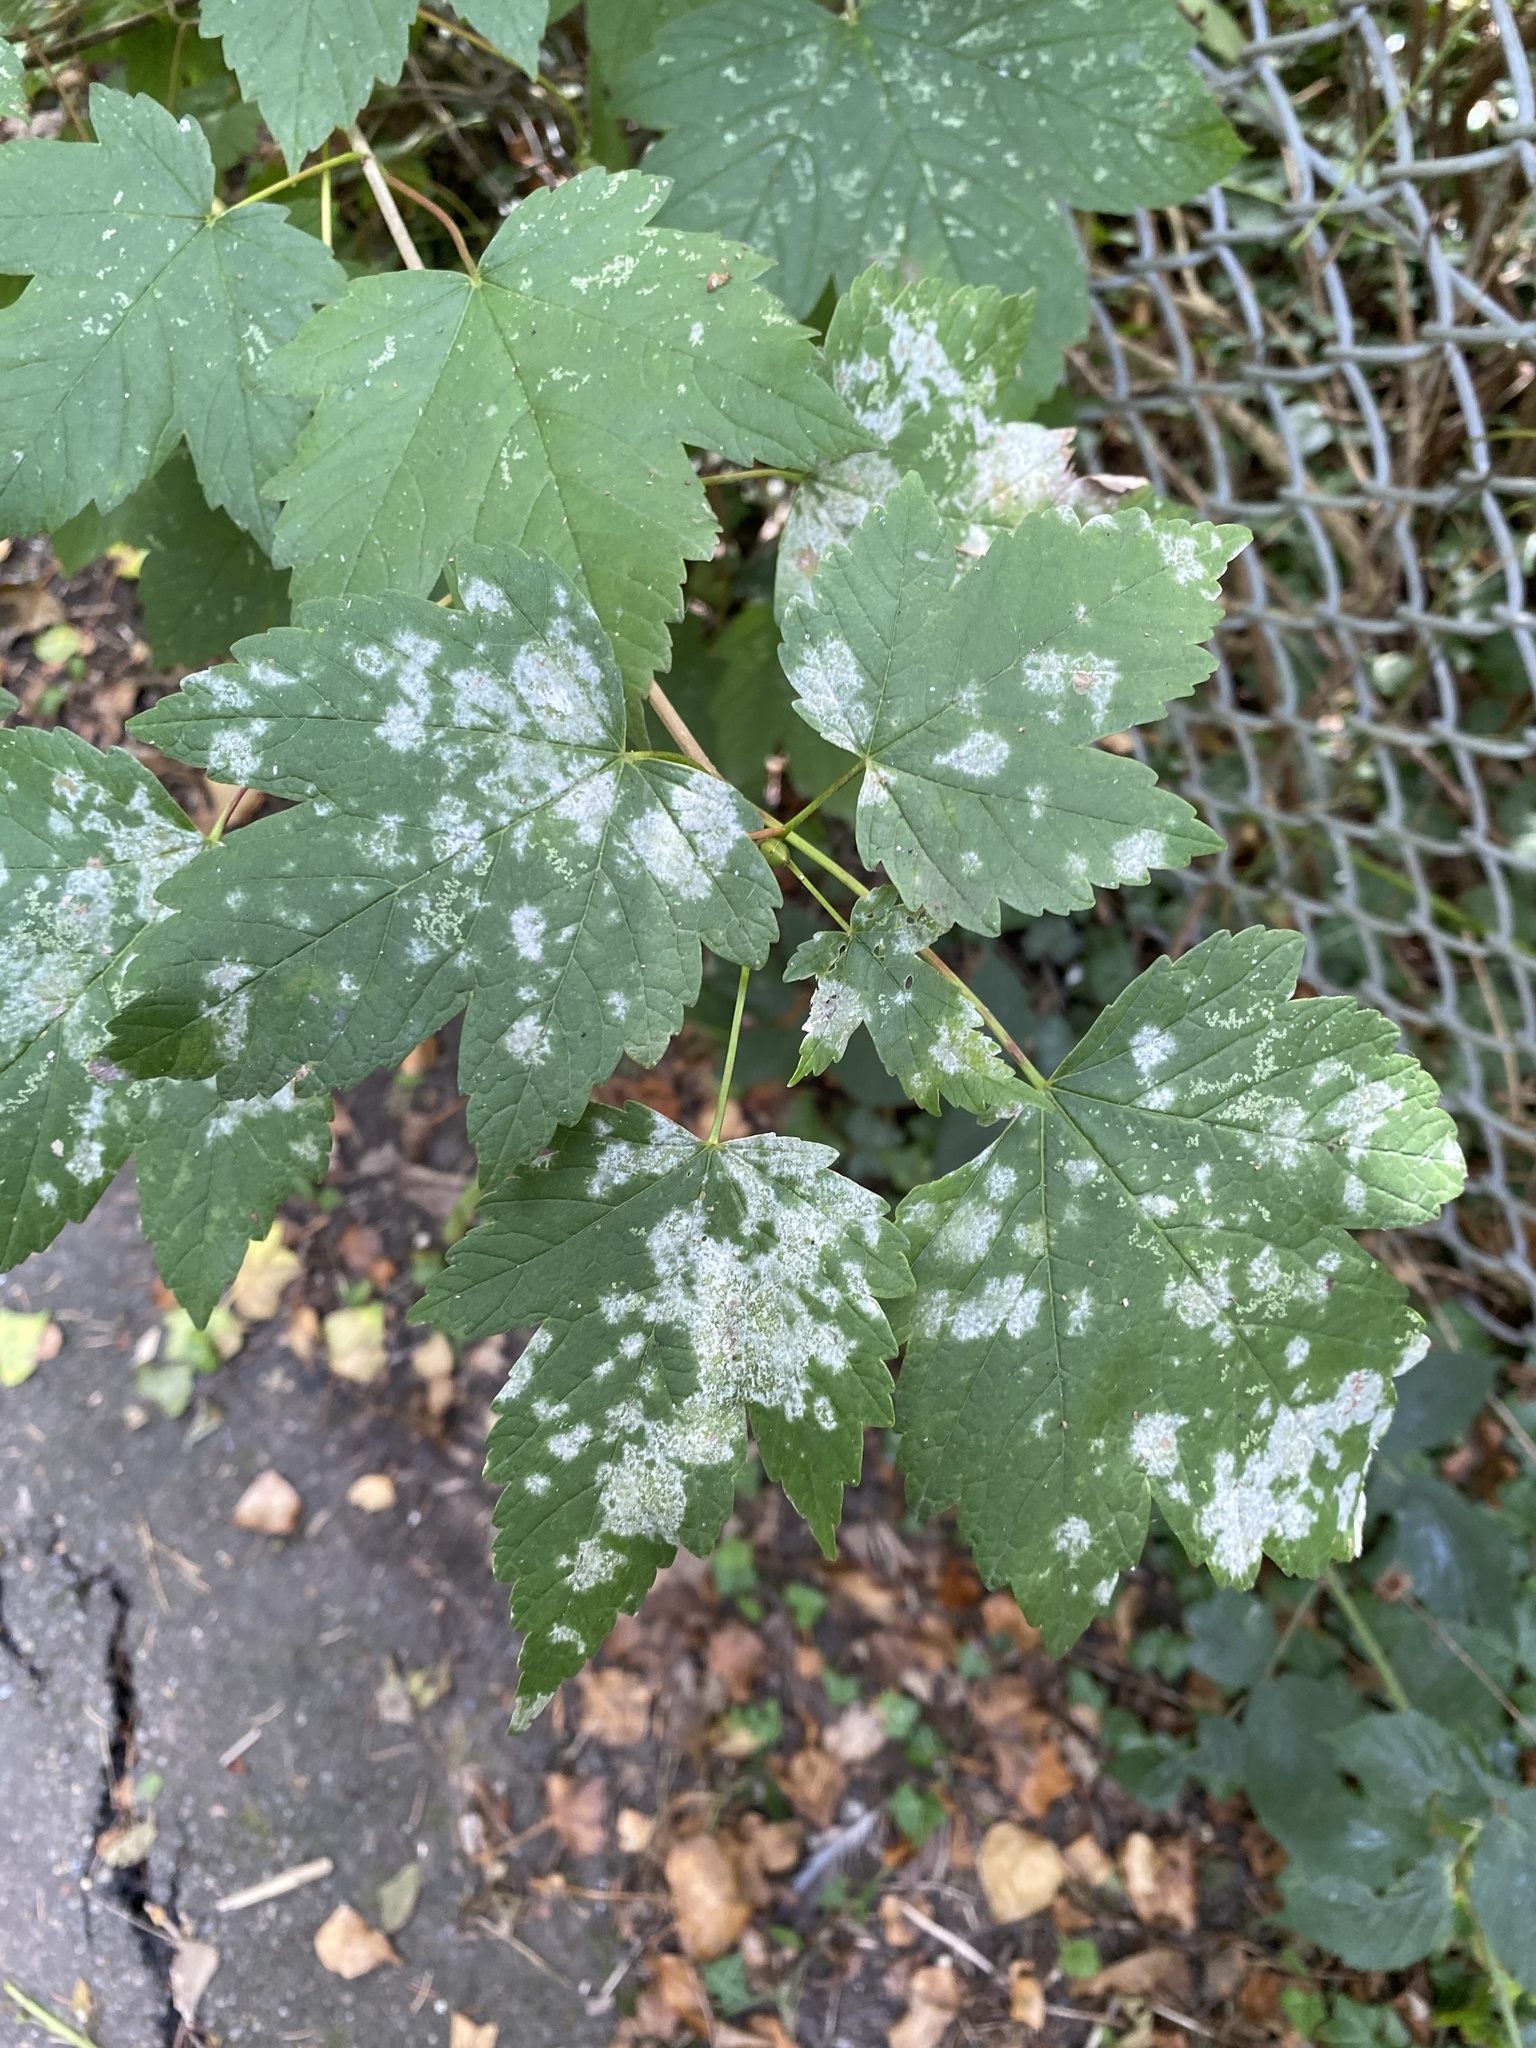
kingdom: Fungi
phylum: Ascomycota
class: Leotiomycetes
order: Helotiales
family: Erysiphaceae
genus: Sawadaea
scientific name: Sawadaea bicornis
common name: Maple mildew
